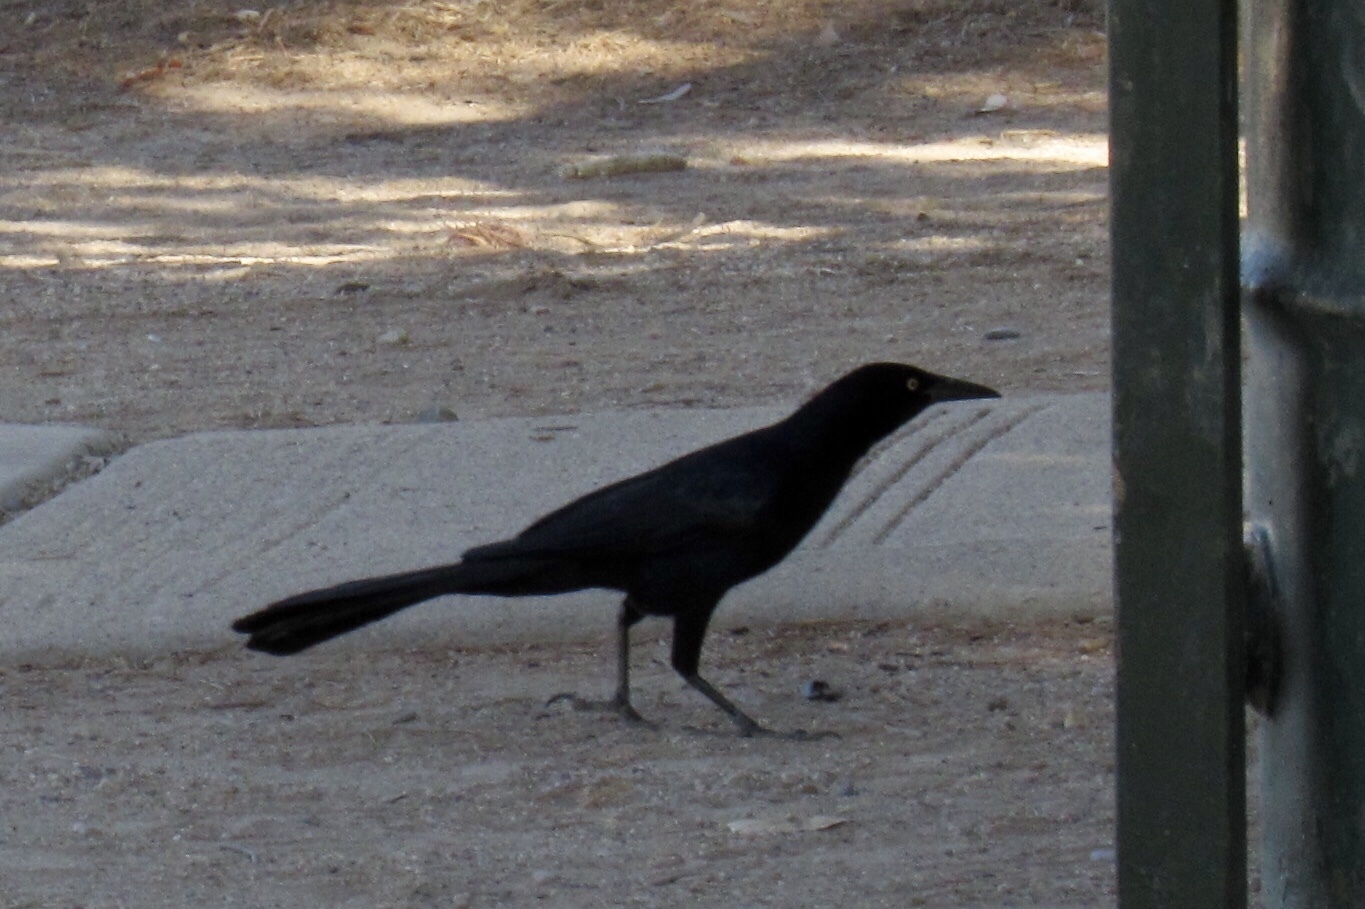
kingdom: Animalia
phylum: Chordata
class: Aves
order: Passeriformes
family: Icteridae
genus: Quiscalus
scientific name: Quiscalus mexicanus
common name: Great-tailed grackle
